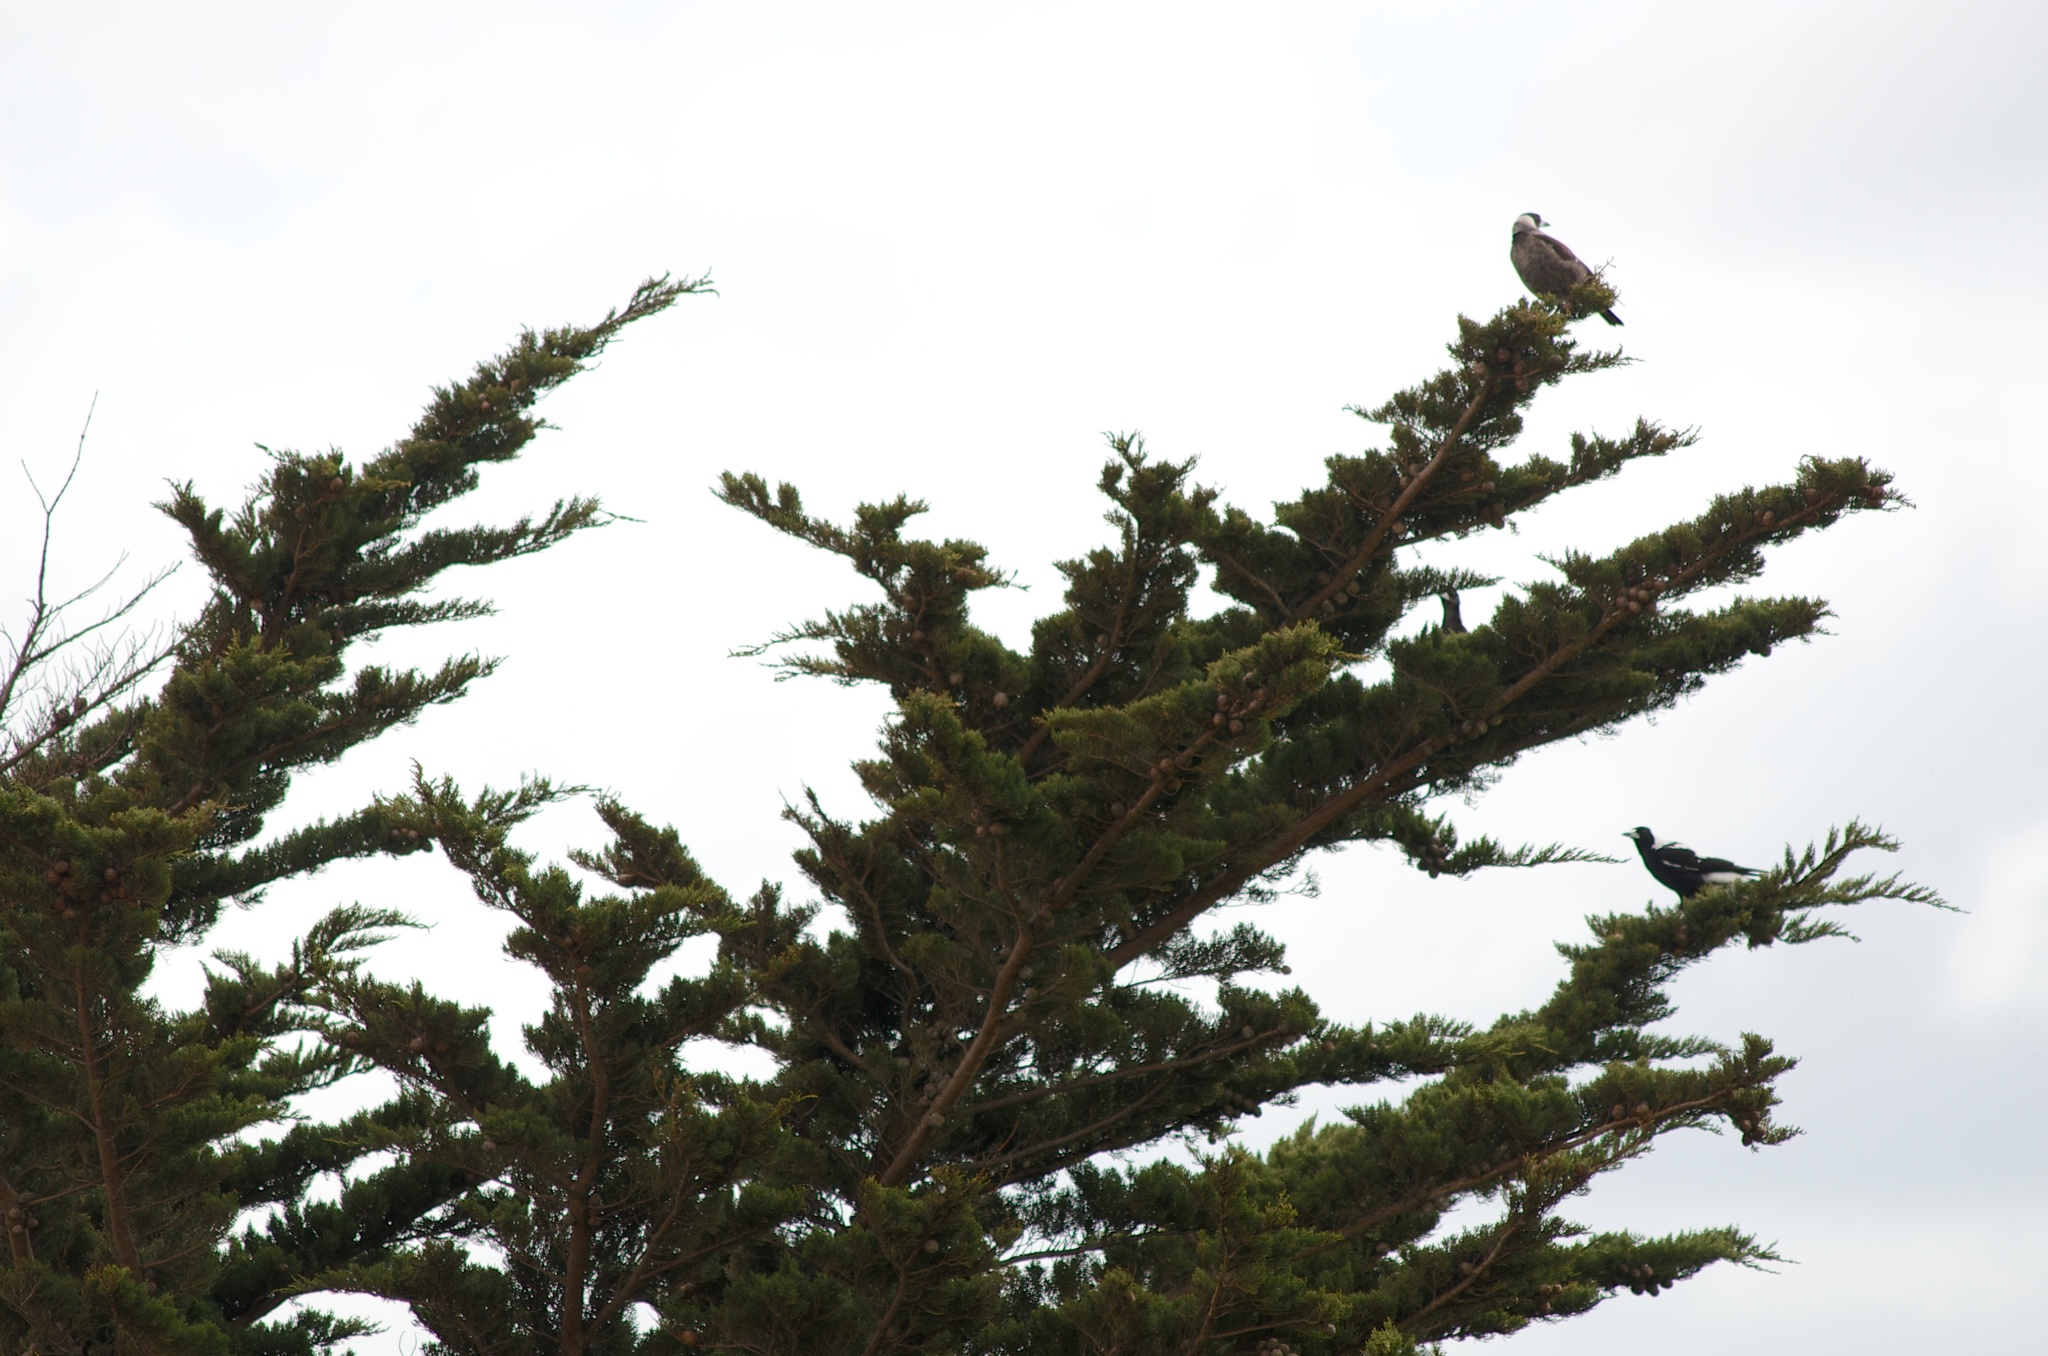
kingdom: Animalia
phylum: Chordata
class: Aves
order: Passeriformes
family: Cracticidae
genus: Gymnorhina
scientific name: Gymnorhina tibicen
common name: Australian magpie
